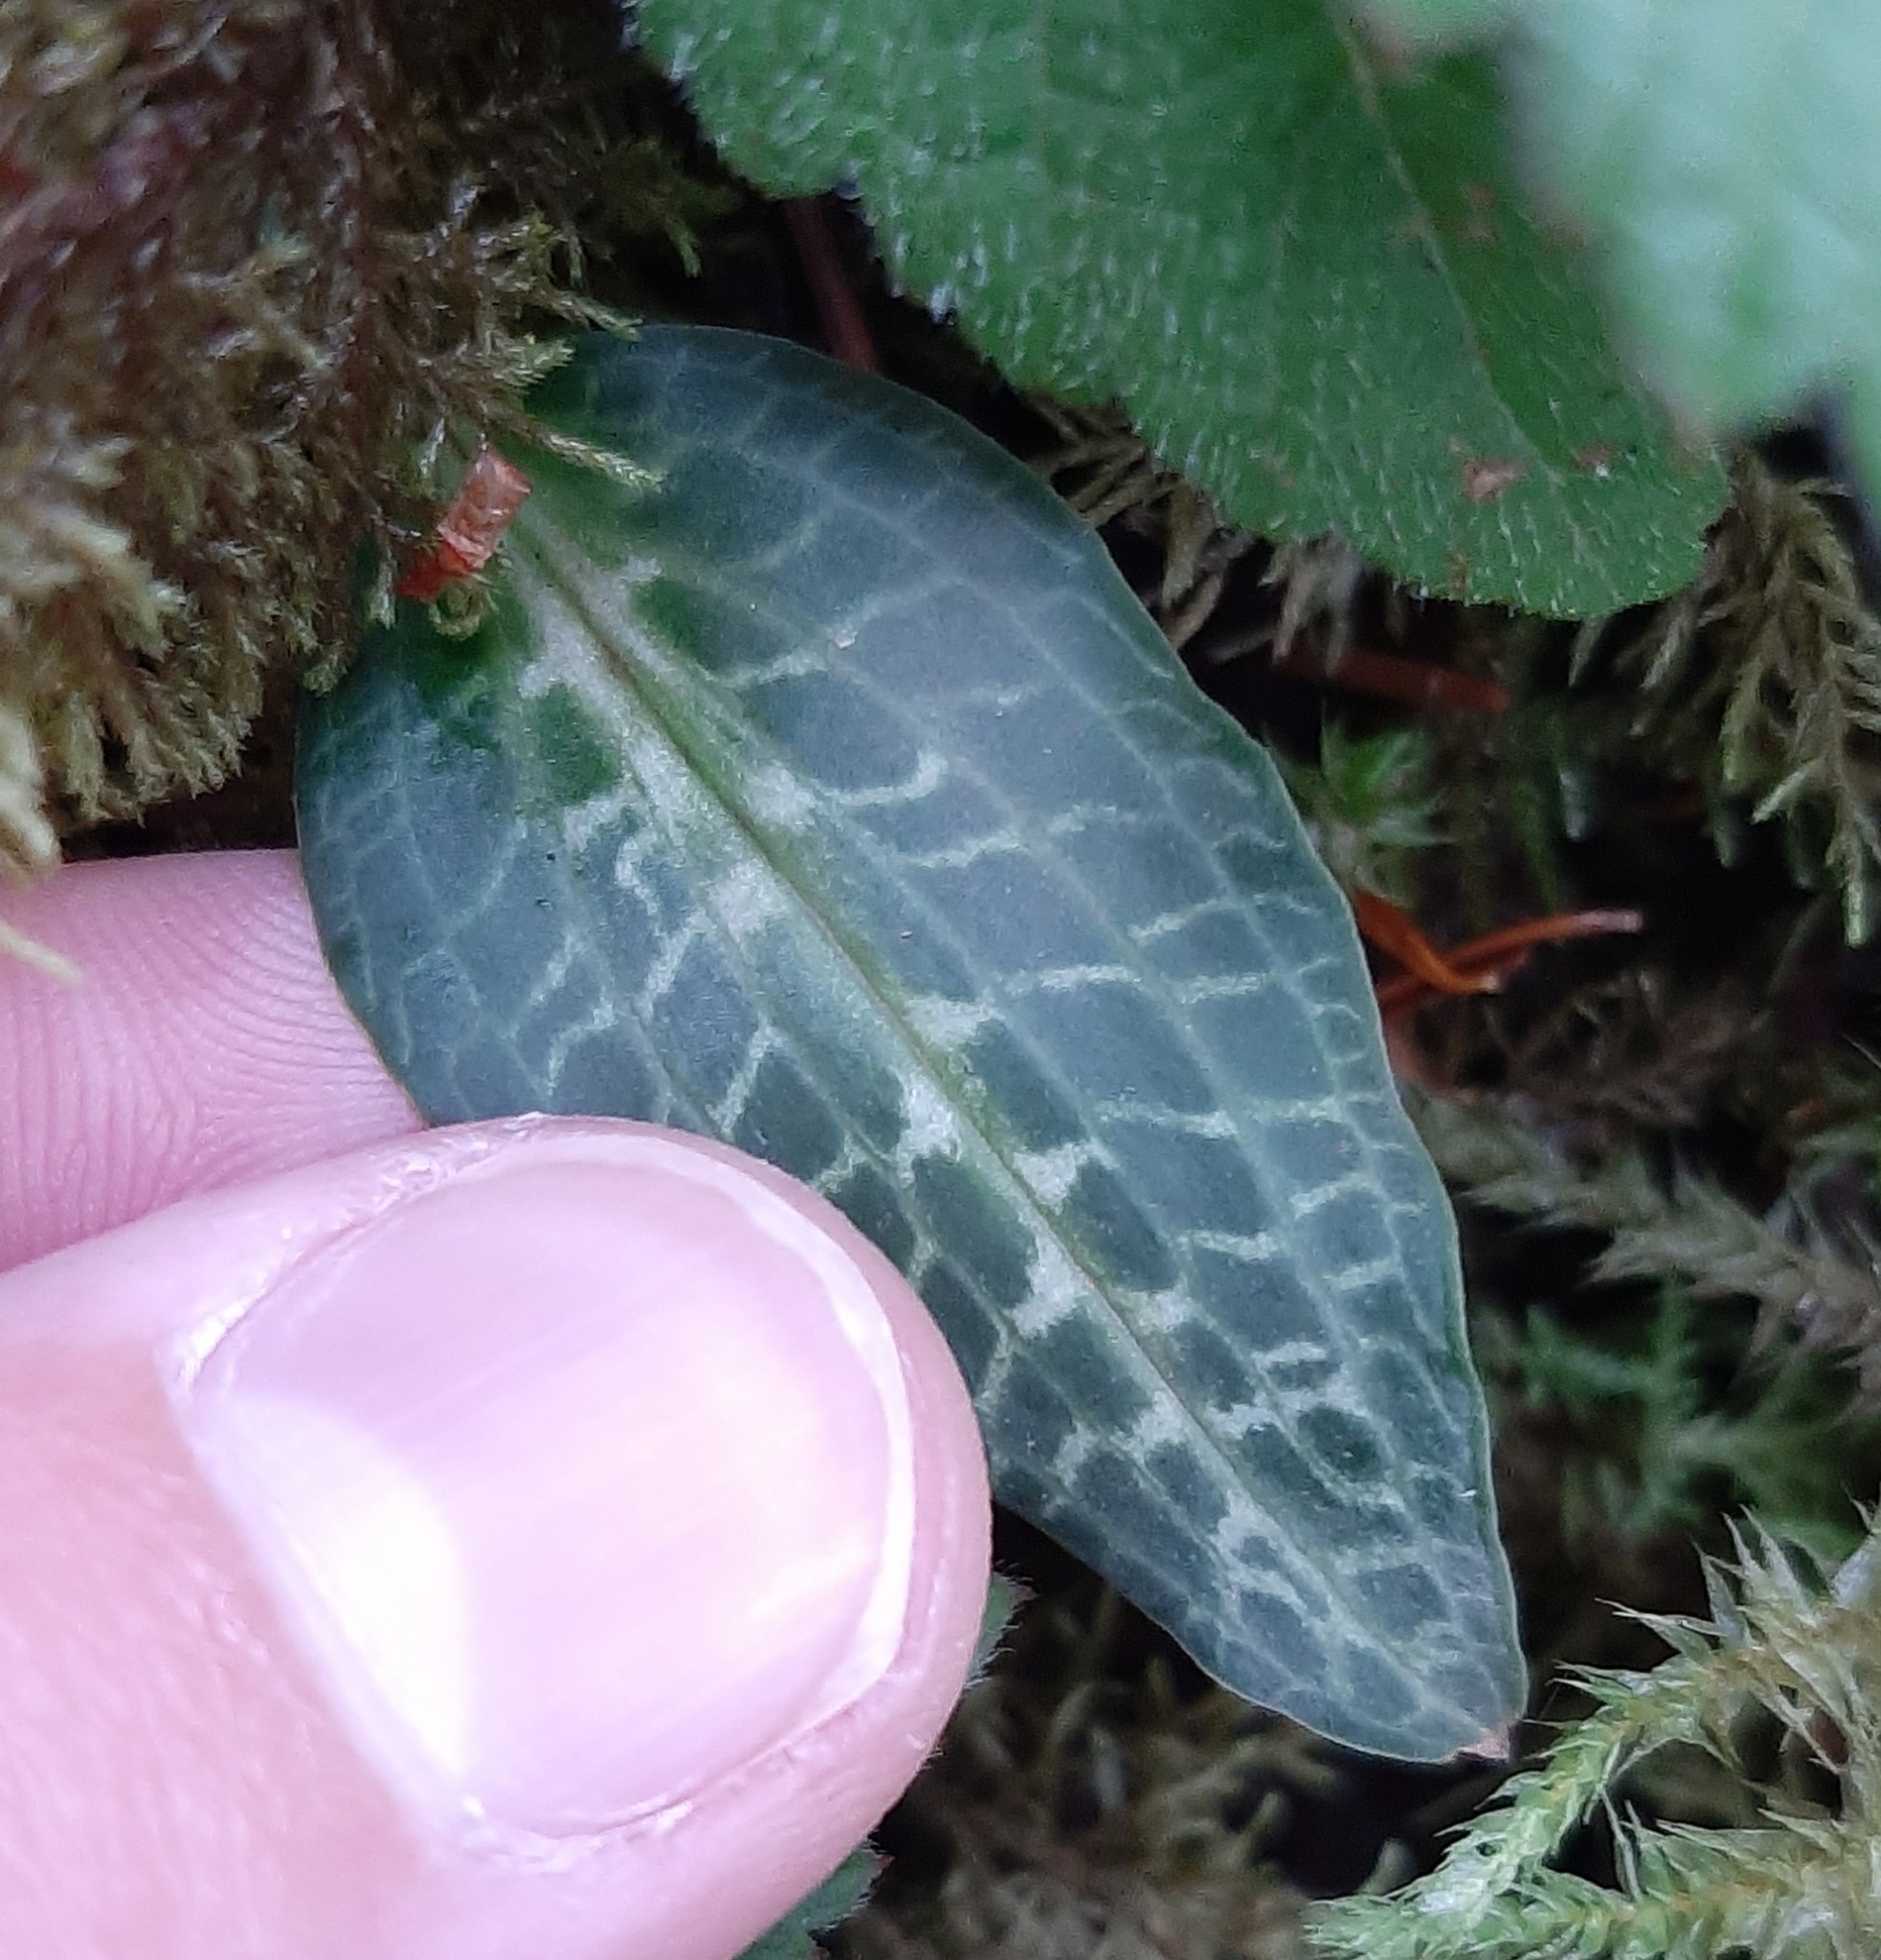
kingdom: Plantae
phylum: Tracheophyta
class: Liliopsida
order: Asparagales
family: Orchidaceae
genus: Goodyera
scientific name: Goodyera oblongifolia
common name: Giant rattlesnake-plantain
